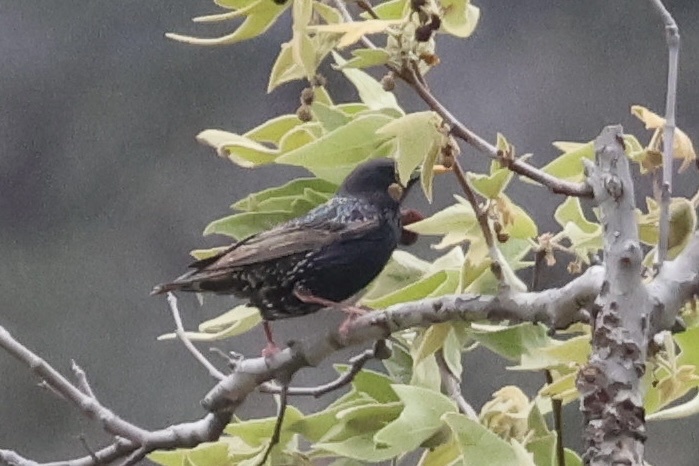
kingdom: Animalia
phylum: Chordata
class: Aves
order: Passeriformes
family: Sturnidae
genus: Sturnus
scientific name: Sturnus vulgaris
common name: Common starling
